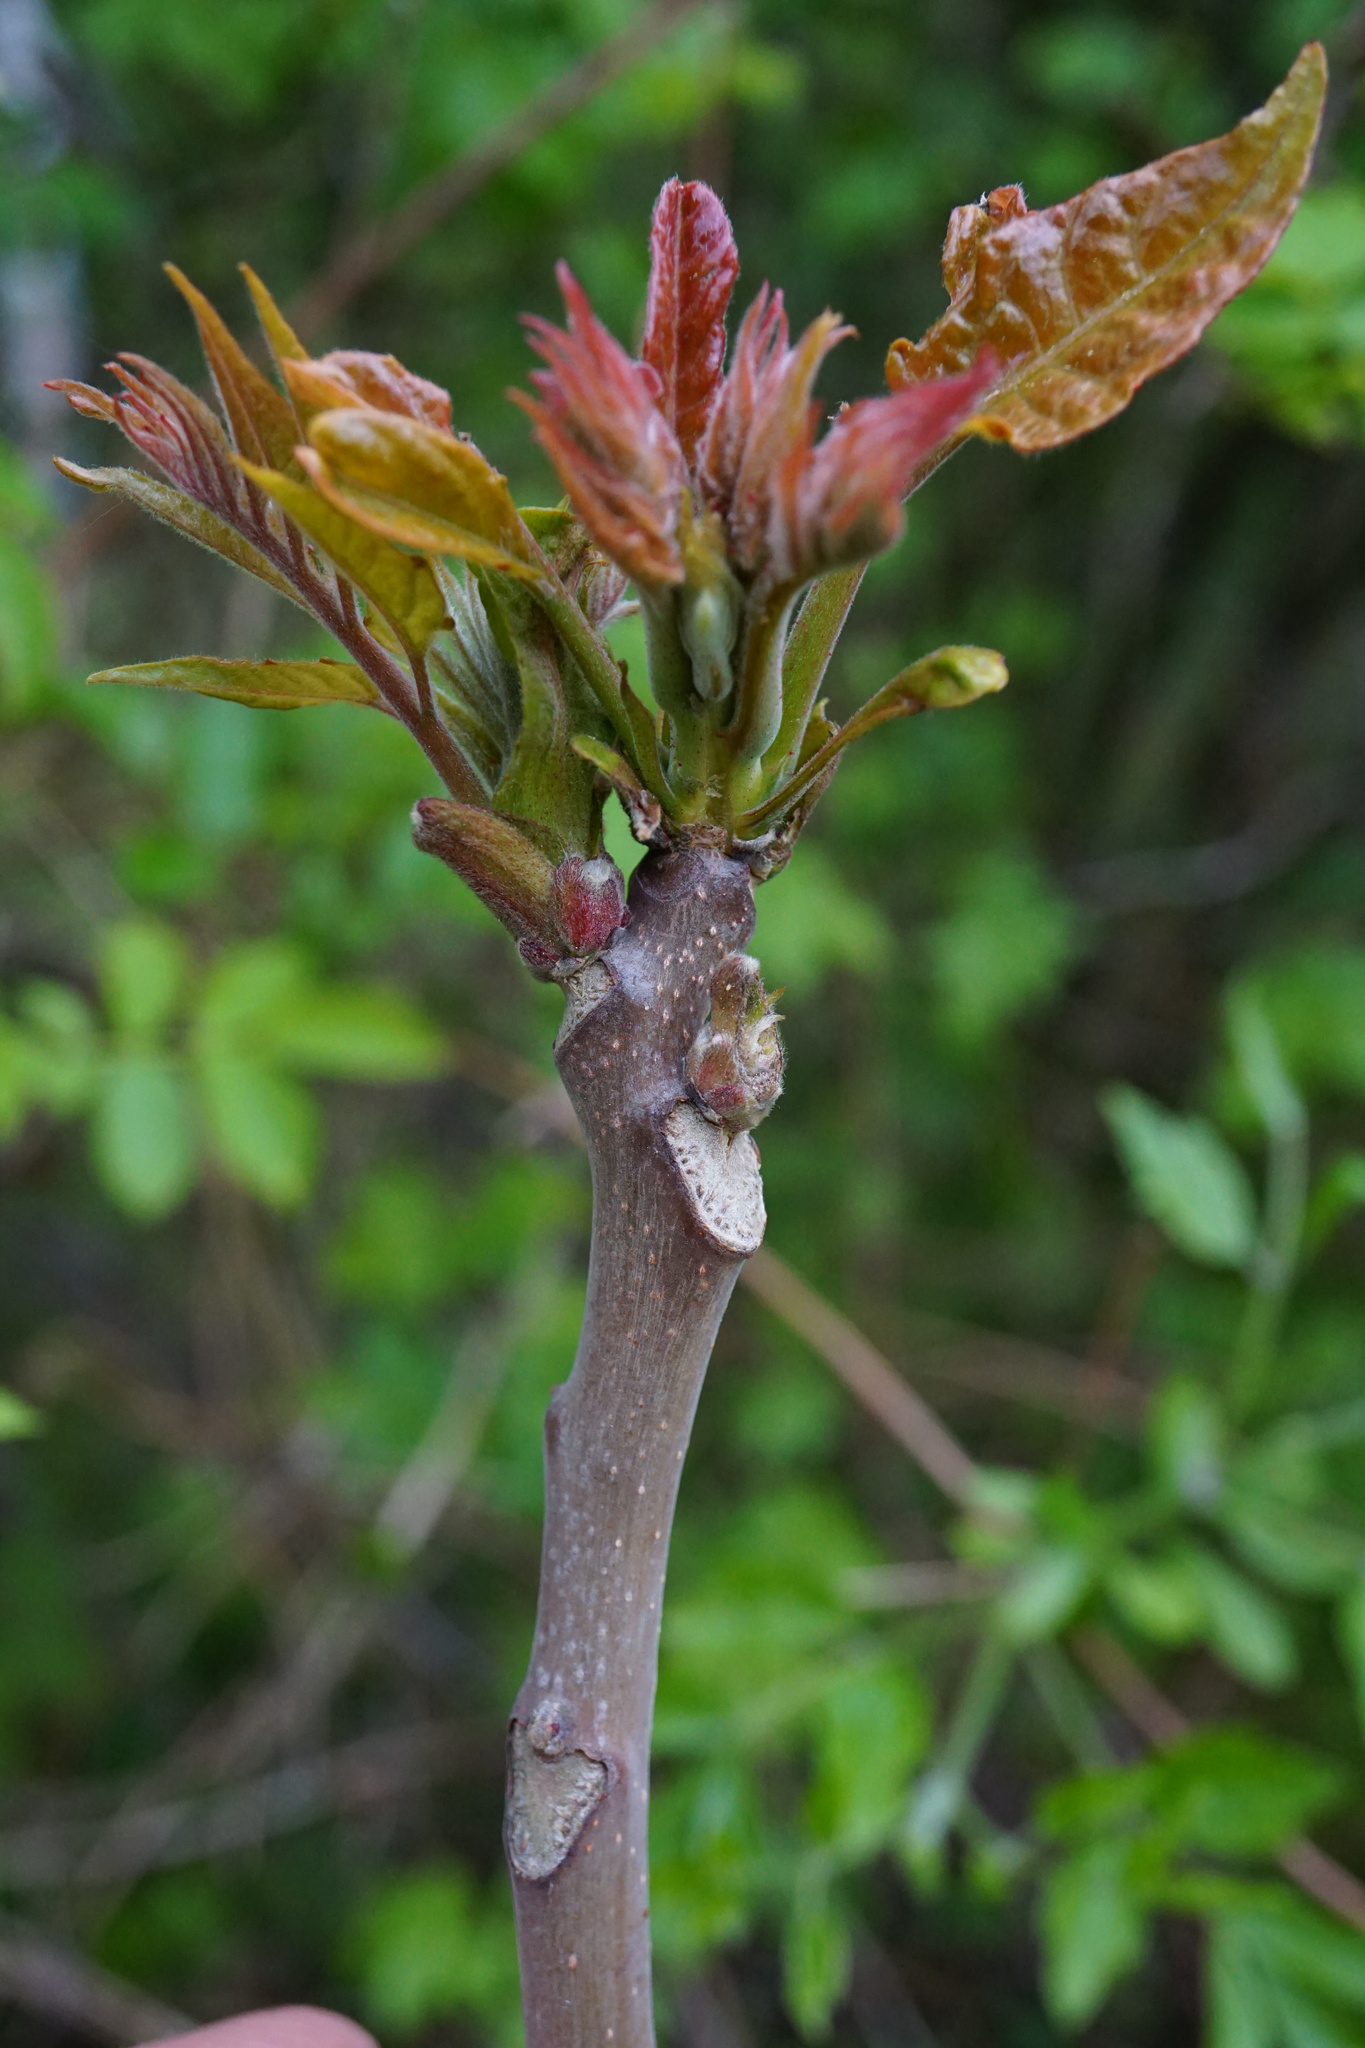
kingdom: Plantae
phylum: Tracheophyta
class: Magnoliopsida
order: Sapindales
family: Simaroubaceae
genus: Ailanthus
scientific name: Ailanthus altissima
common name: Tree-of-heaven
